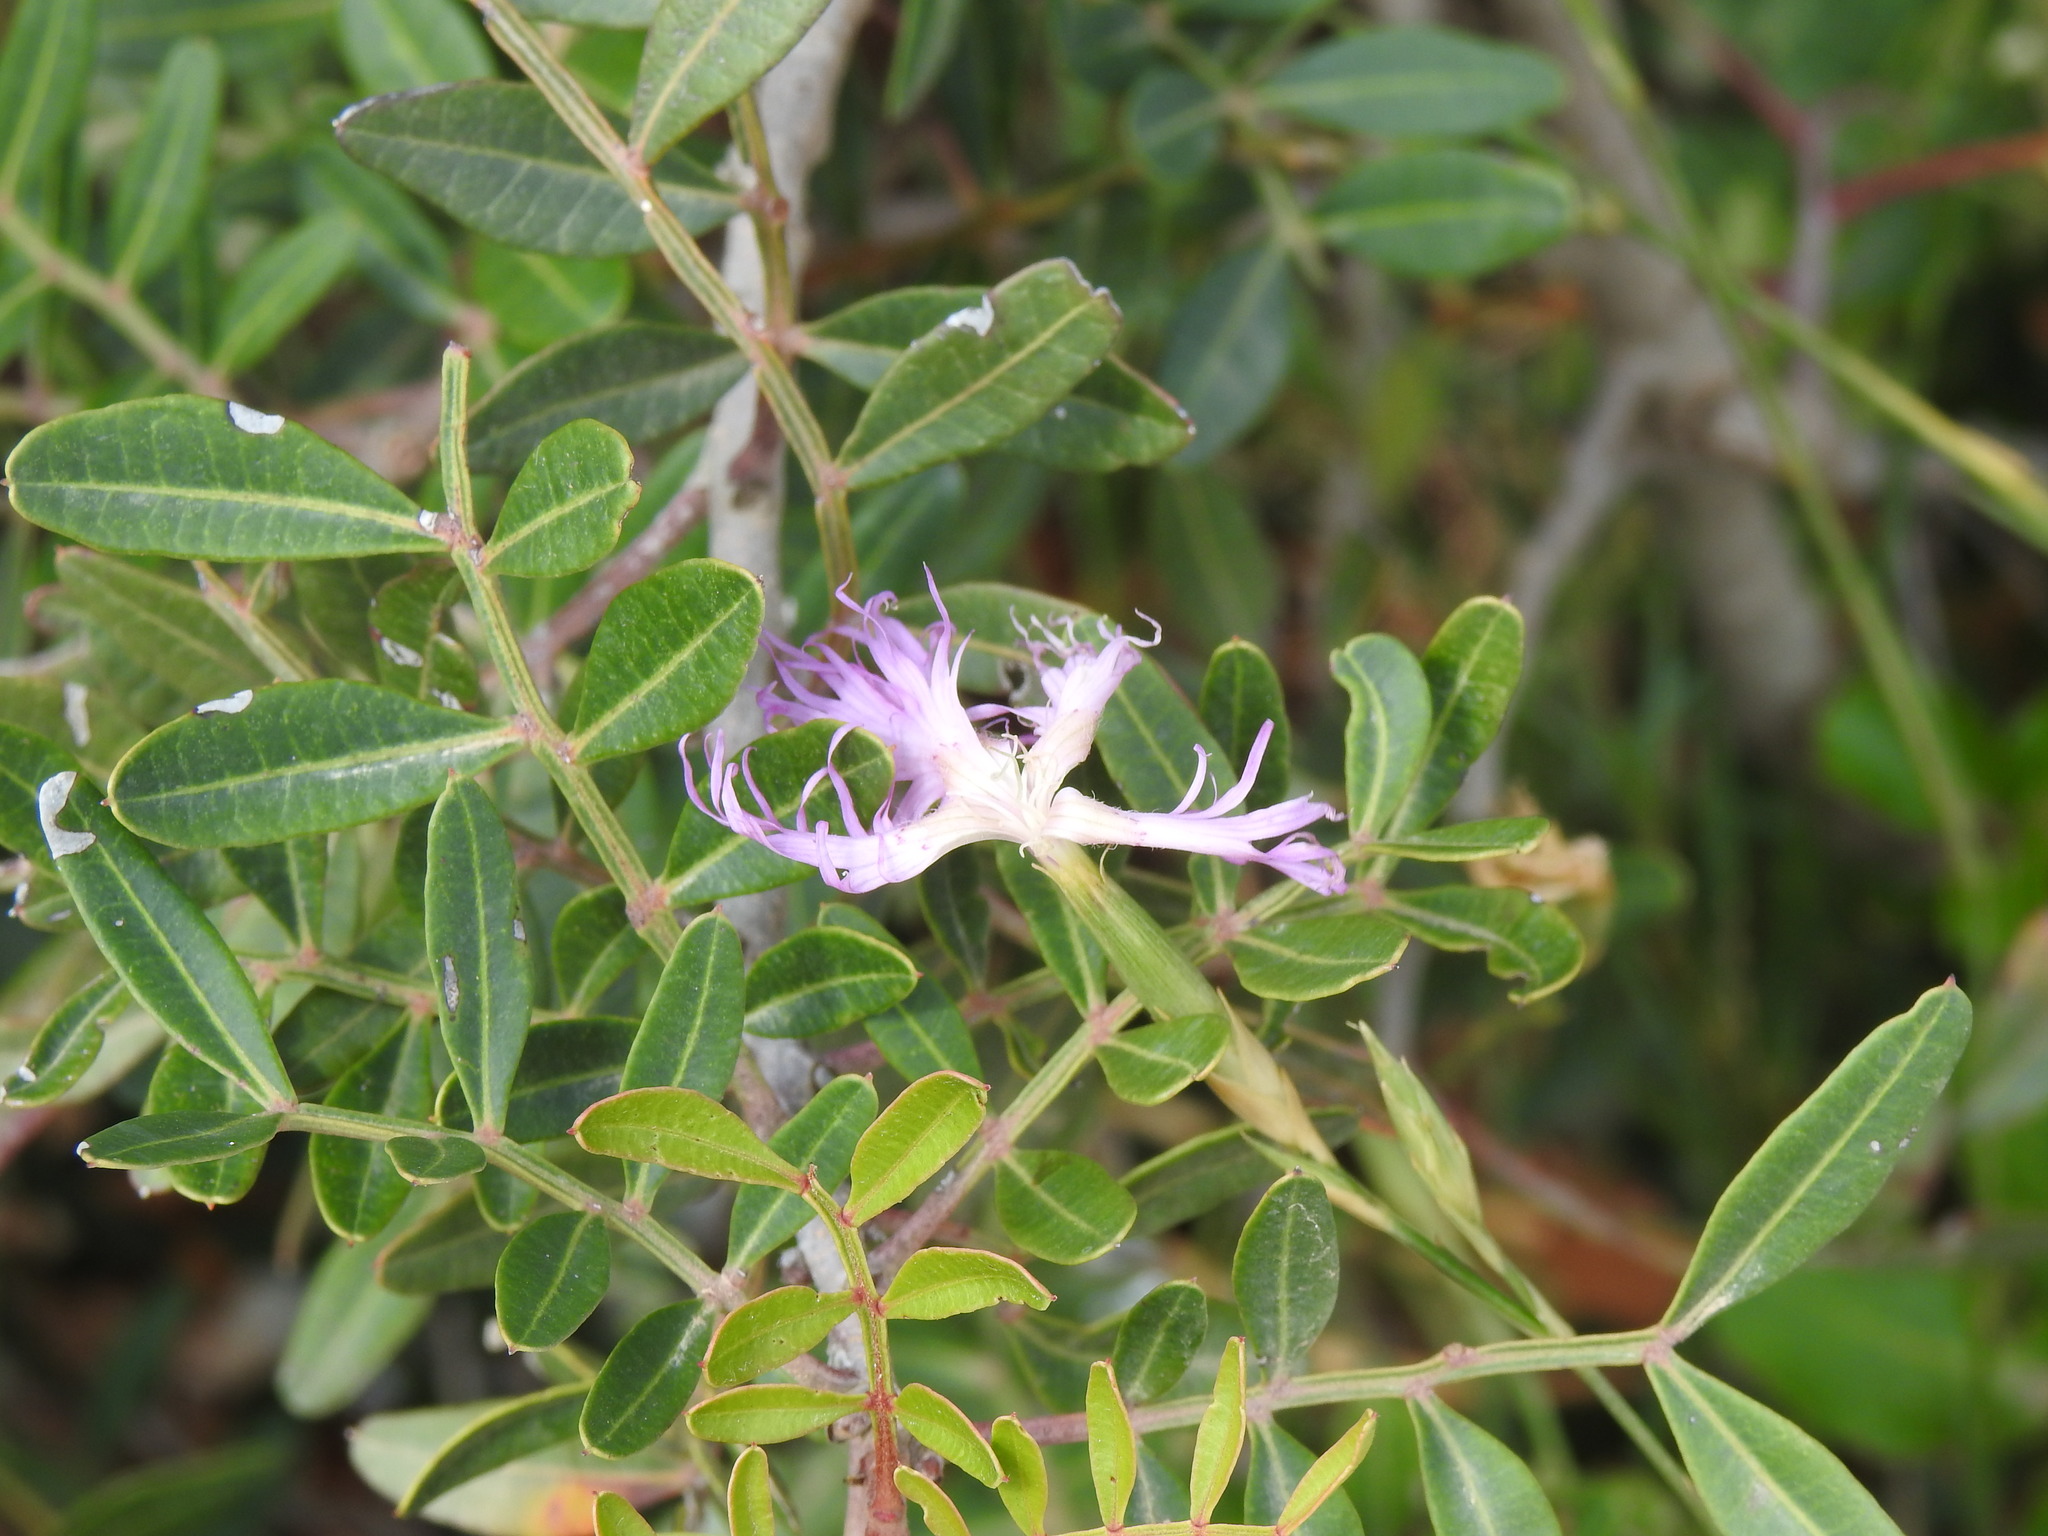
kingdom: Plantae
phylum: Tracheophyta
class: Magnoliopsida
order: Caryophyllales
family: Caryophyllaceae
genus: Dianthus
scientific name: Dianthus broteri
